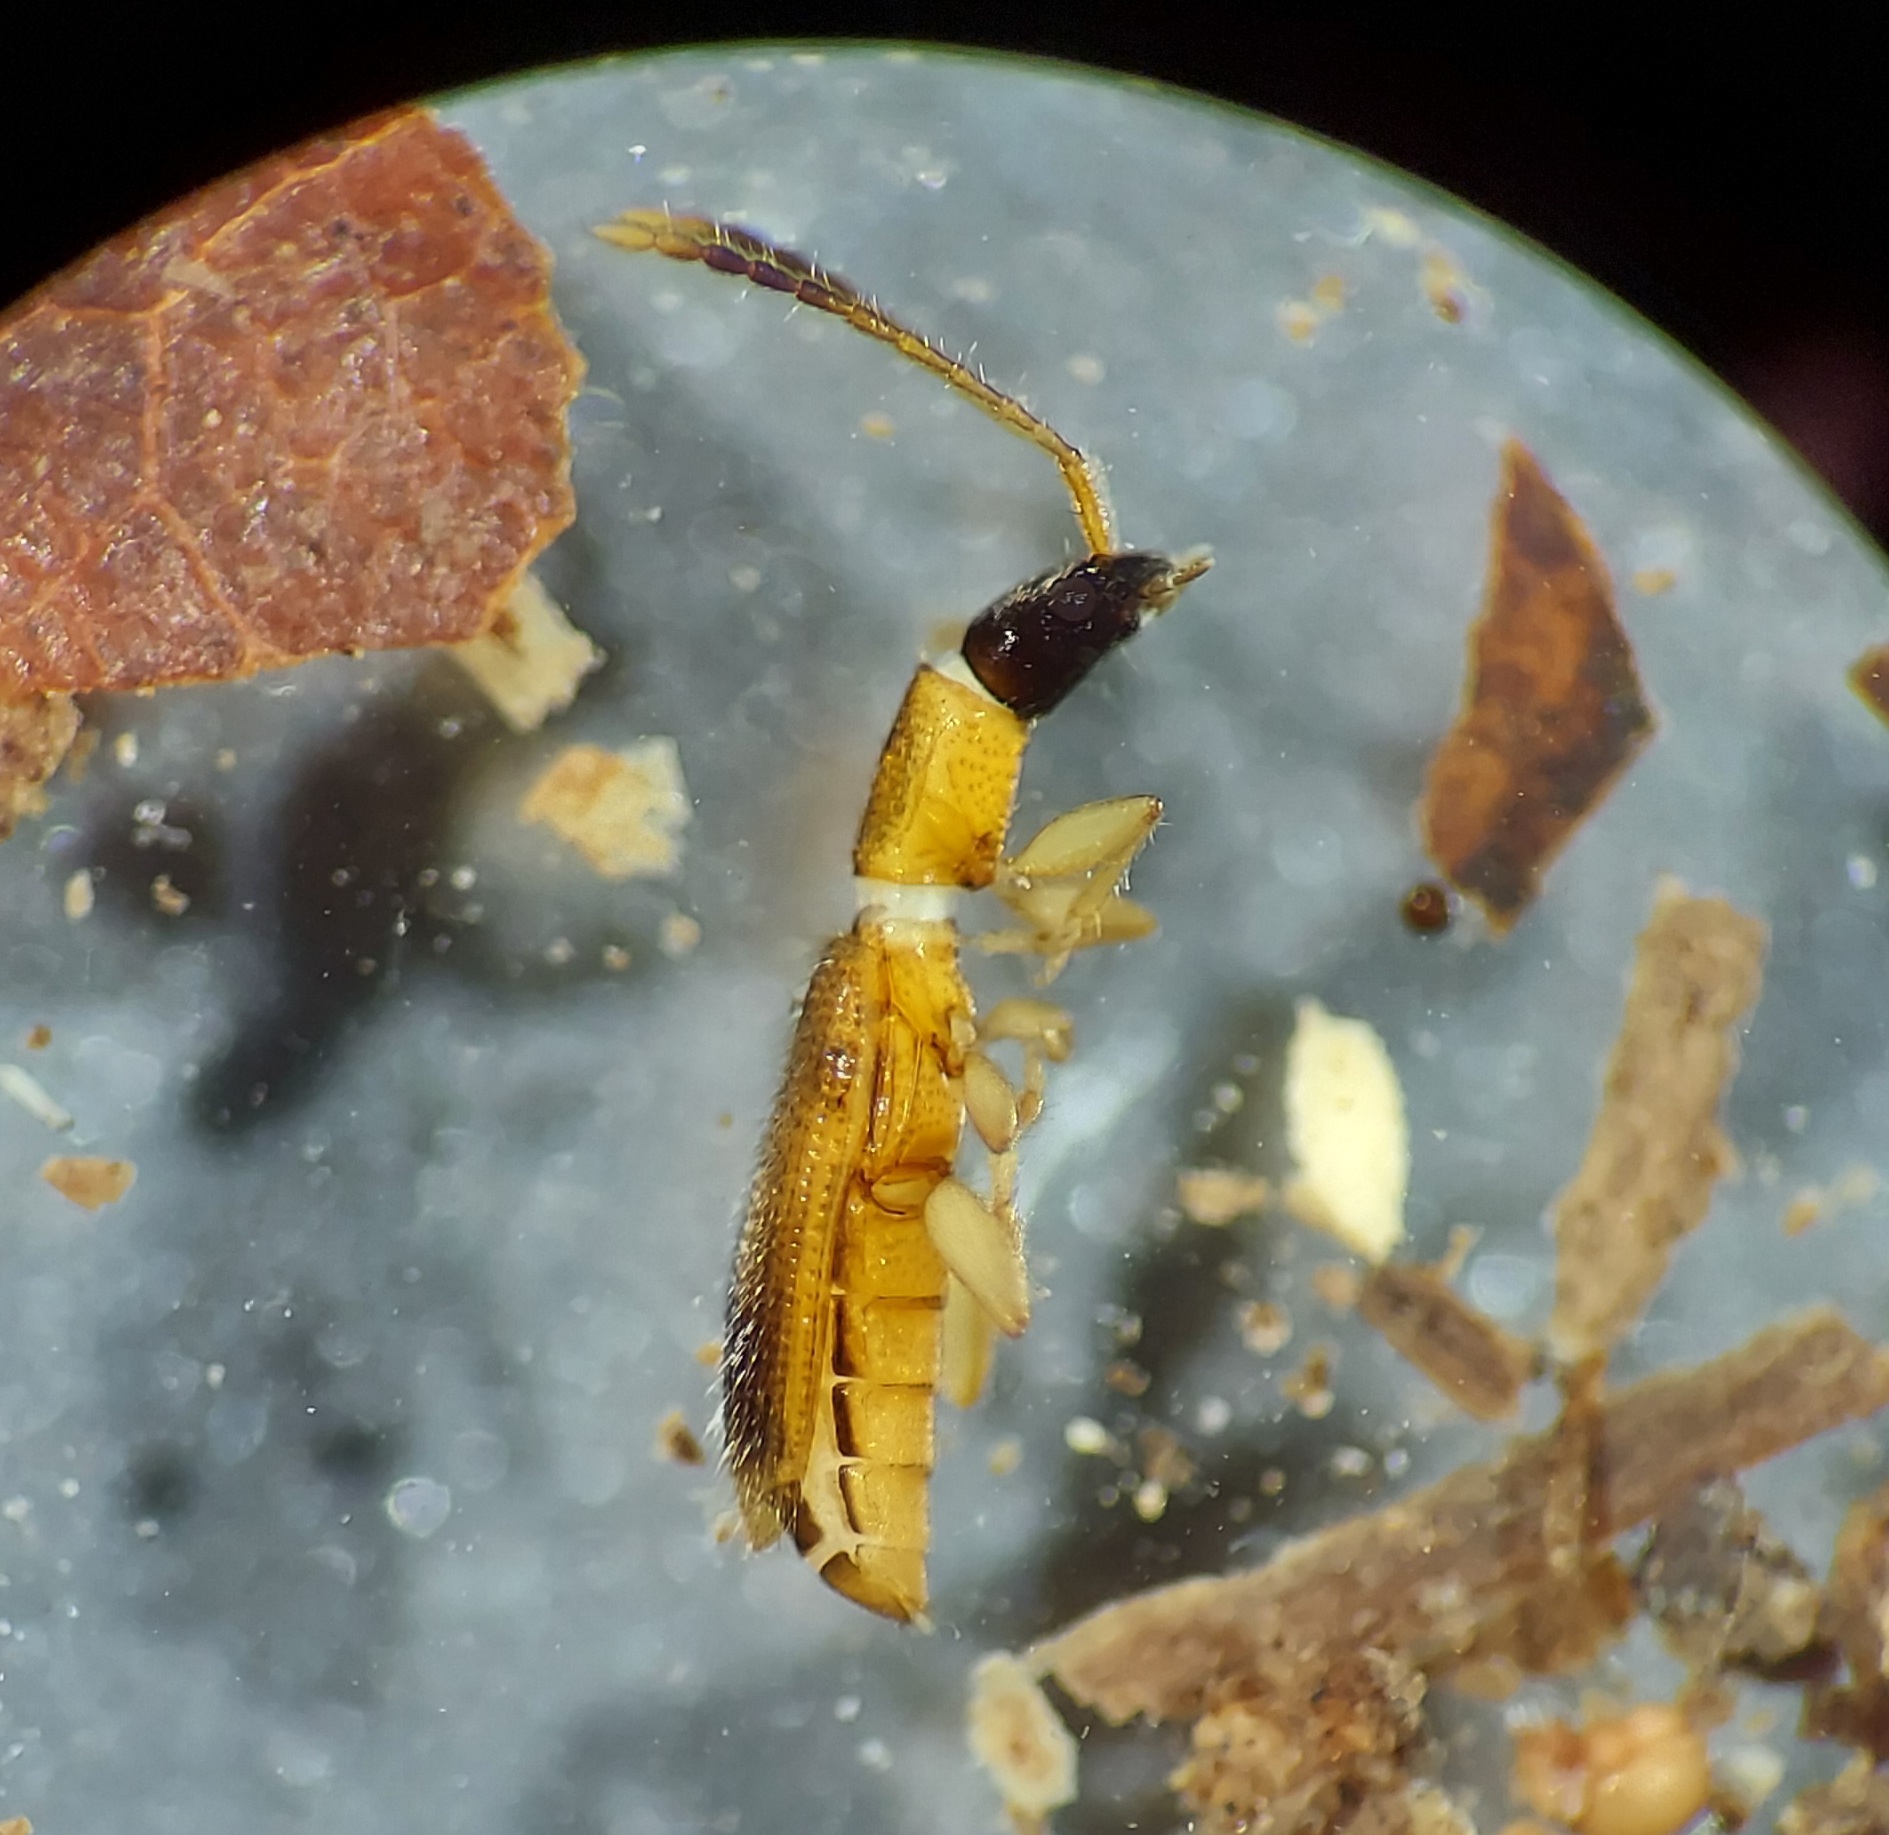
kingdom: Animalia
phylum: Arthropoda
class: Insecta
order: Coleoptera
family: Silvanidae
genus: Telephanus
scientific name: Telephanus velox
